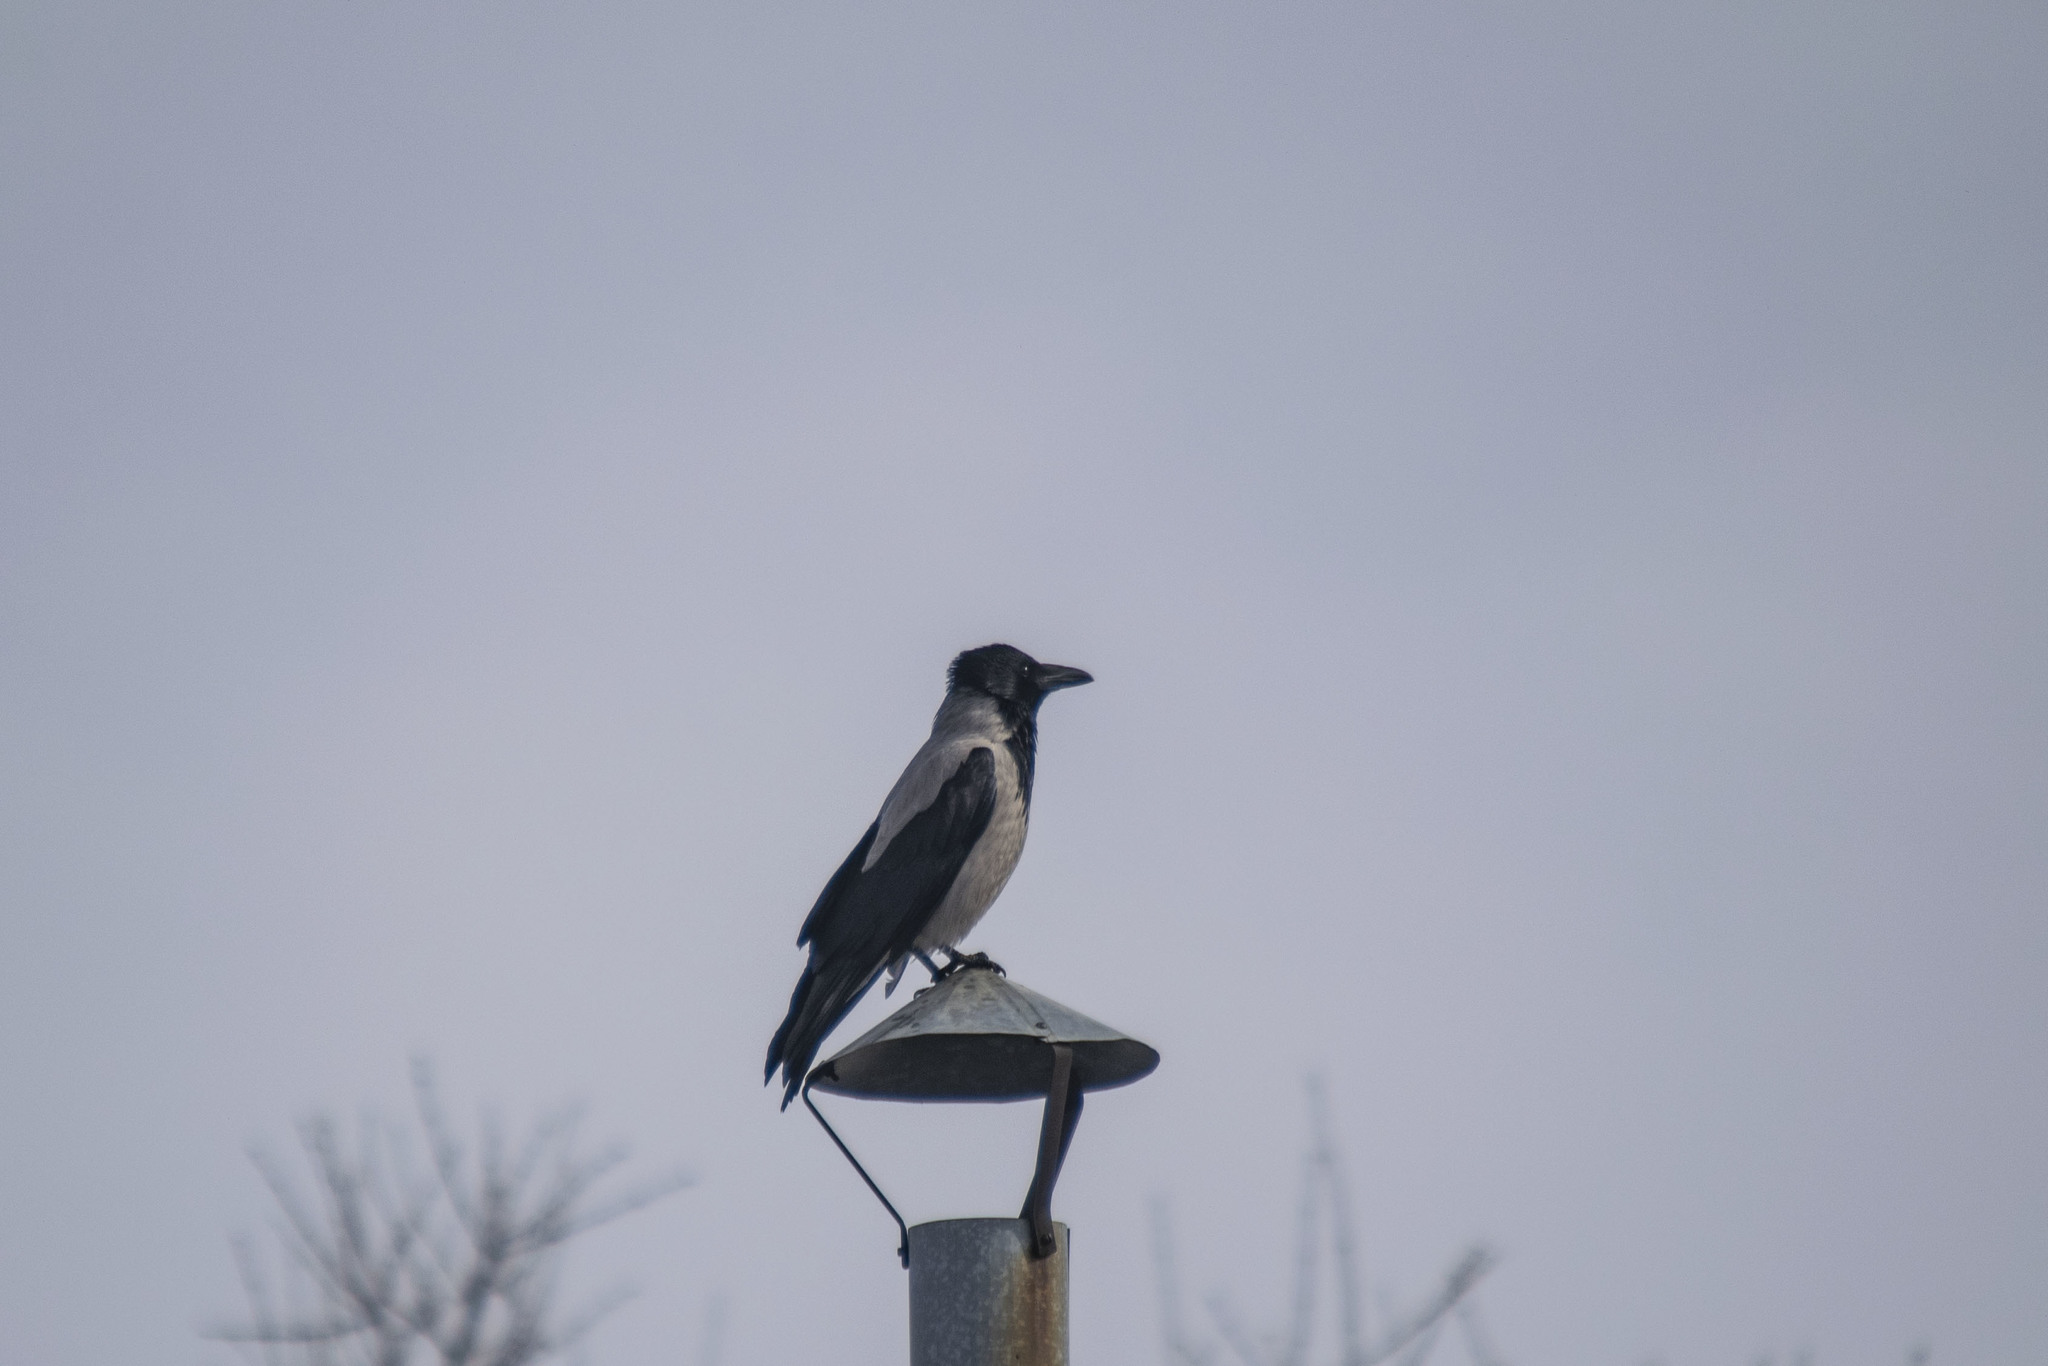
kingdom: Animalia
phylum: Chordata
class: Aves
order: Passeriformes
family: Corvidae
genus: Corvus
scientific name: Corvus cornix
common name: Hooded crow
